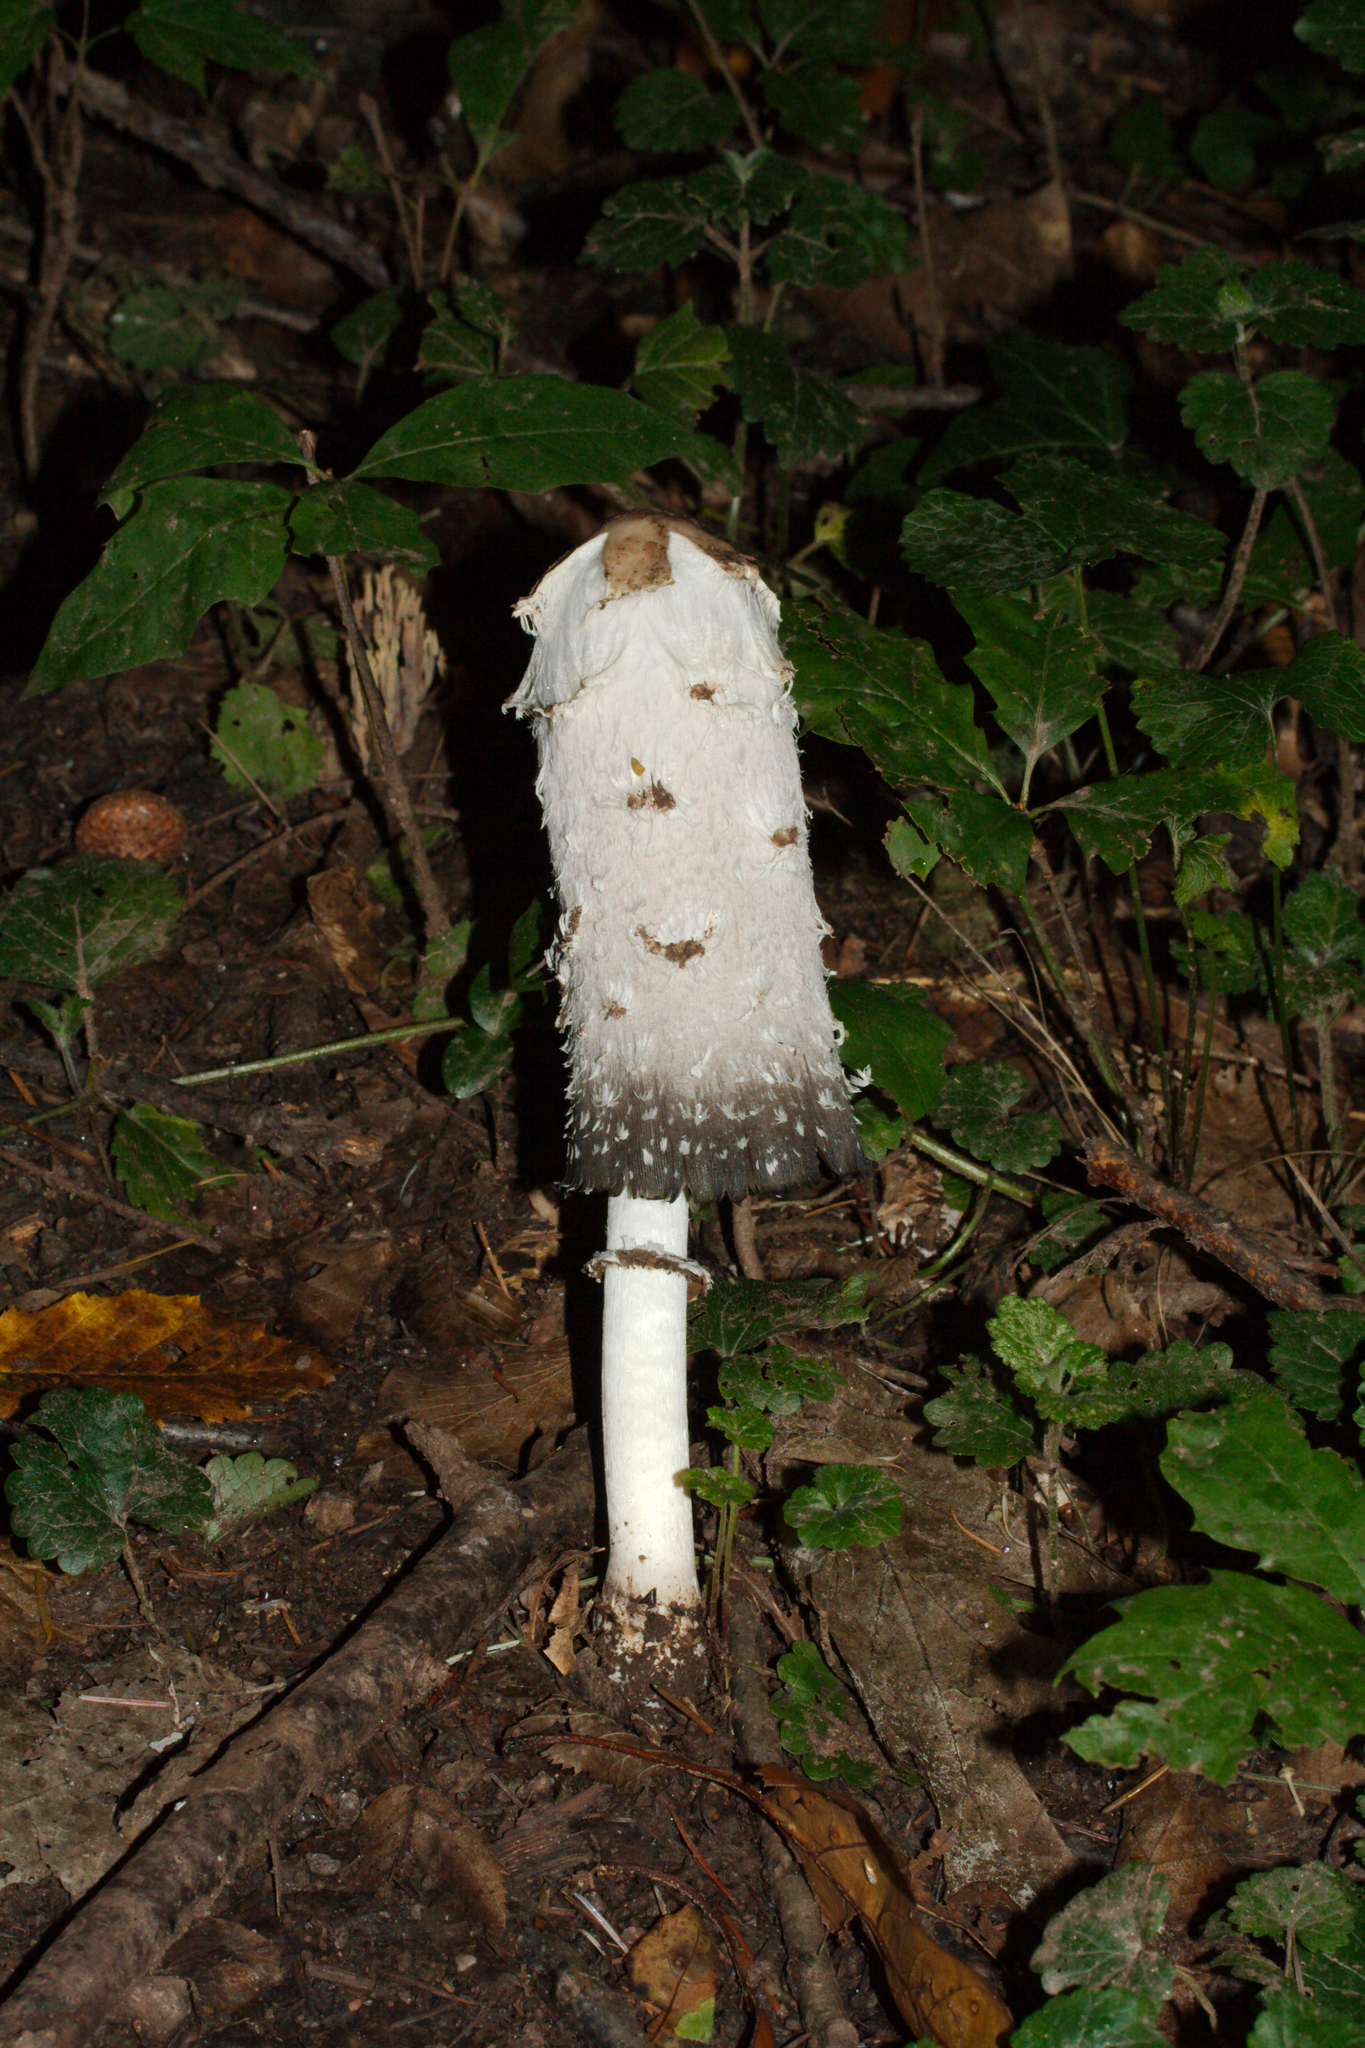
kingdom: Fungi
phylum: Basidiomycota
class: Agaricomycetes
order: Agaricales
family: Agaricaceae
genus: Coprinus
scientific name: Coprinus comatus
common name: Lawyer's wig
